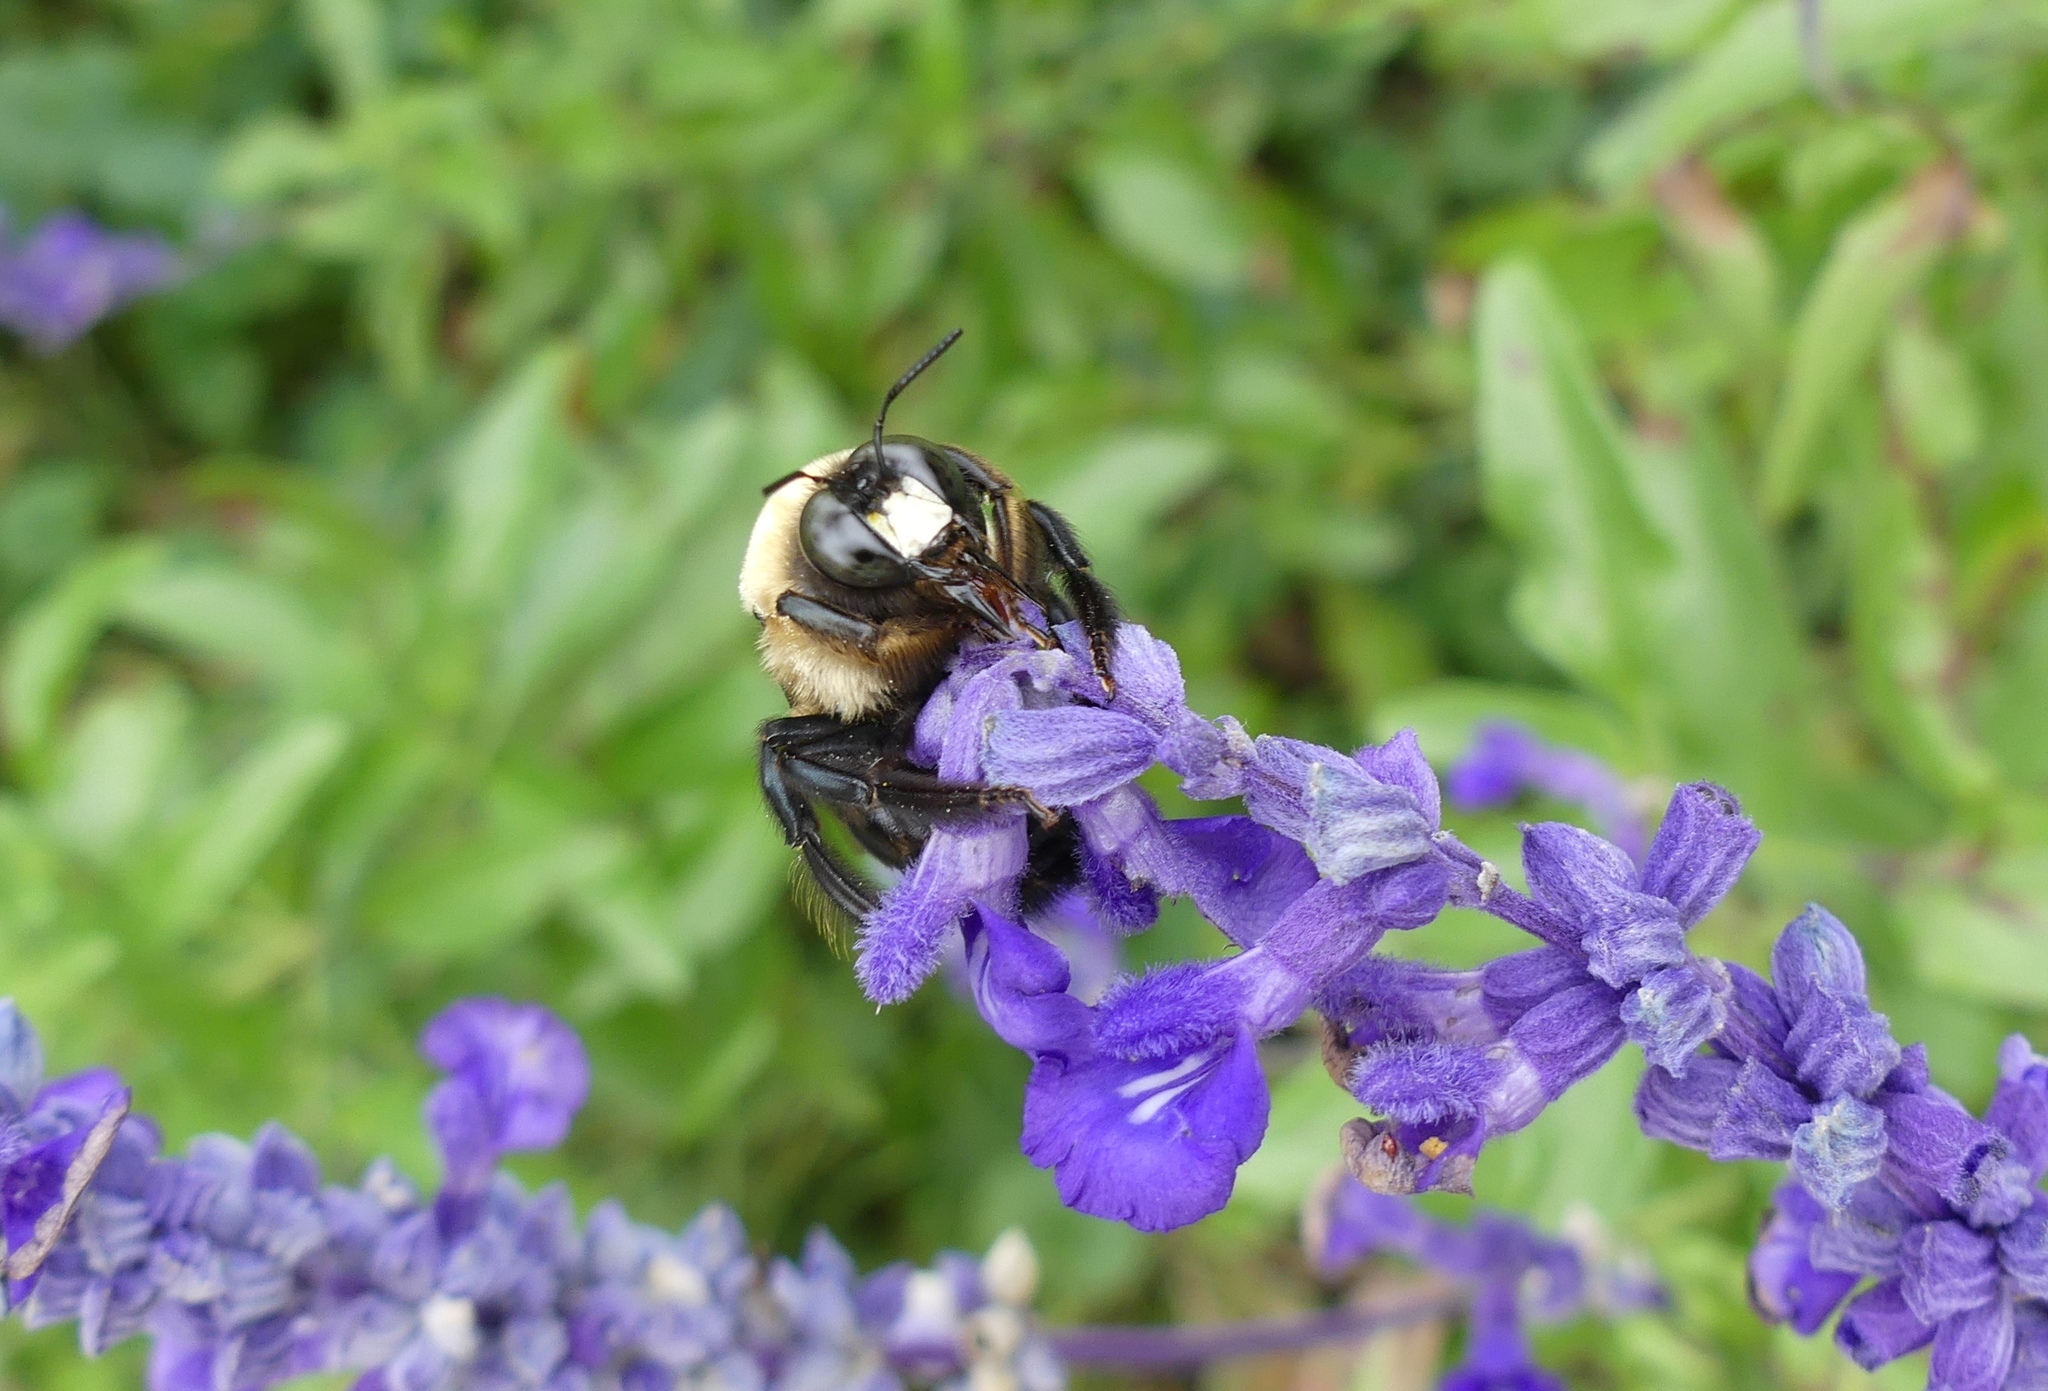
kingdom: Animalia
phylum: Arthropoda
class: Insecta
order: Hymenoptera
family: Apidae
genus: Xylocopa
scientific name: Xylocopa virginica
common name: Carpenter bee
